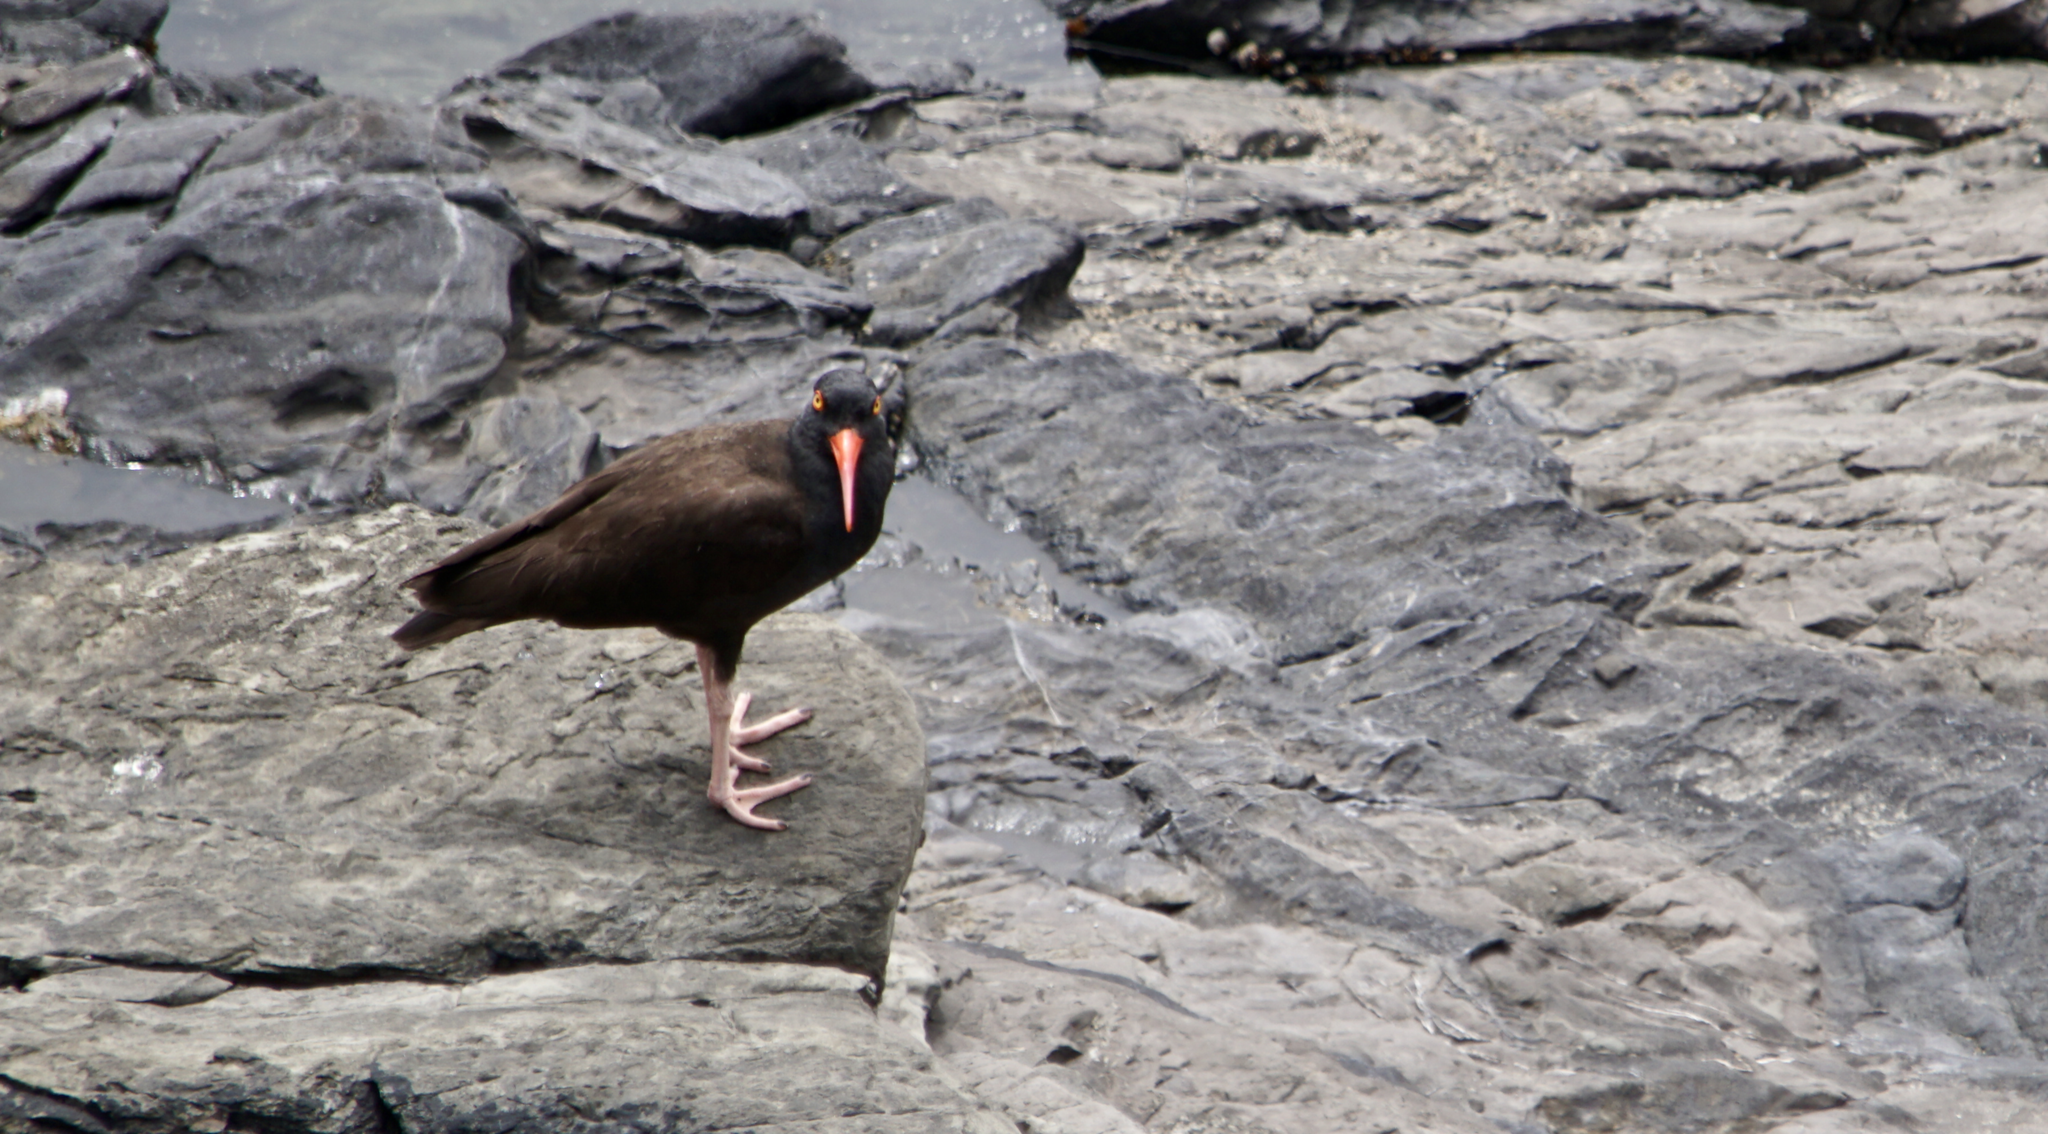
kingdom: Animalia
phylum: Chordata
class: Aves
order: Charadriiformes
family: Haematopodidae
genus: Haematopus
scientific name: Haematopus bachmani
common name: Black oystercatcher
